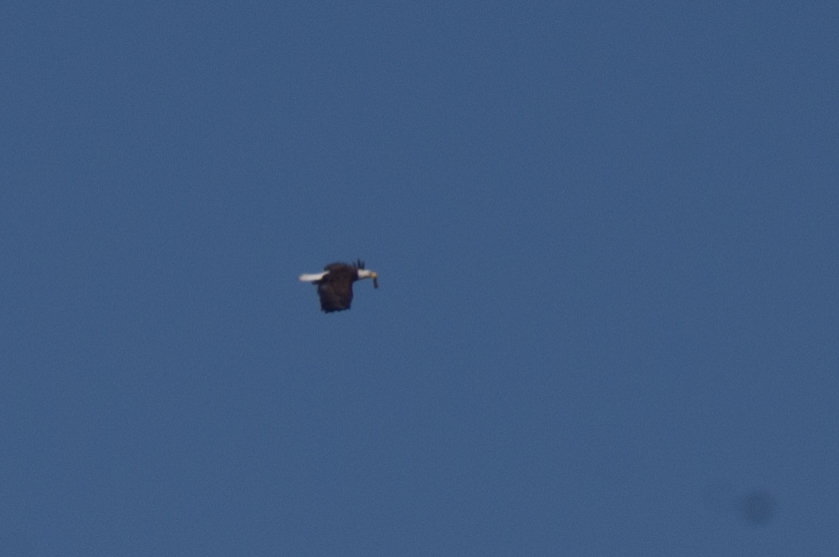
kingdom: Animalia
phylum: Chordata
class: Aves
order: Accipitriformes
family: Accipitridae
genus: Haliaeetus
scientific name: Haliaeetus leucocephalus
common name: Bald eagle
